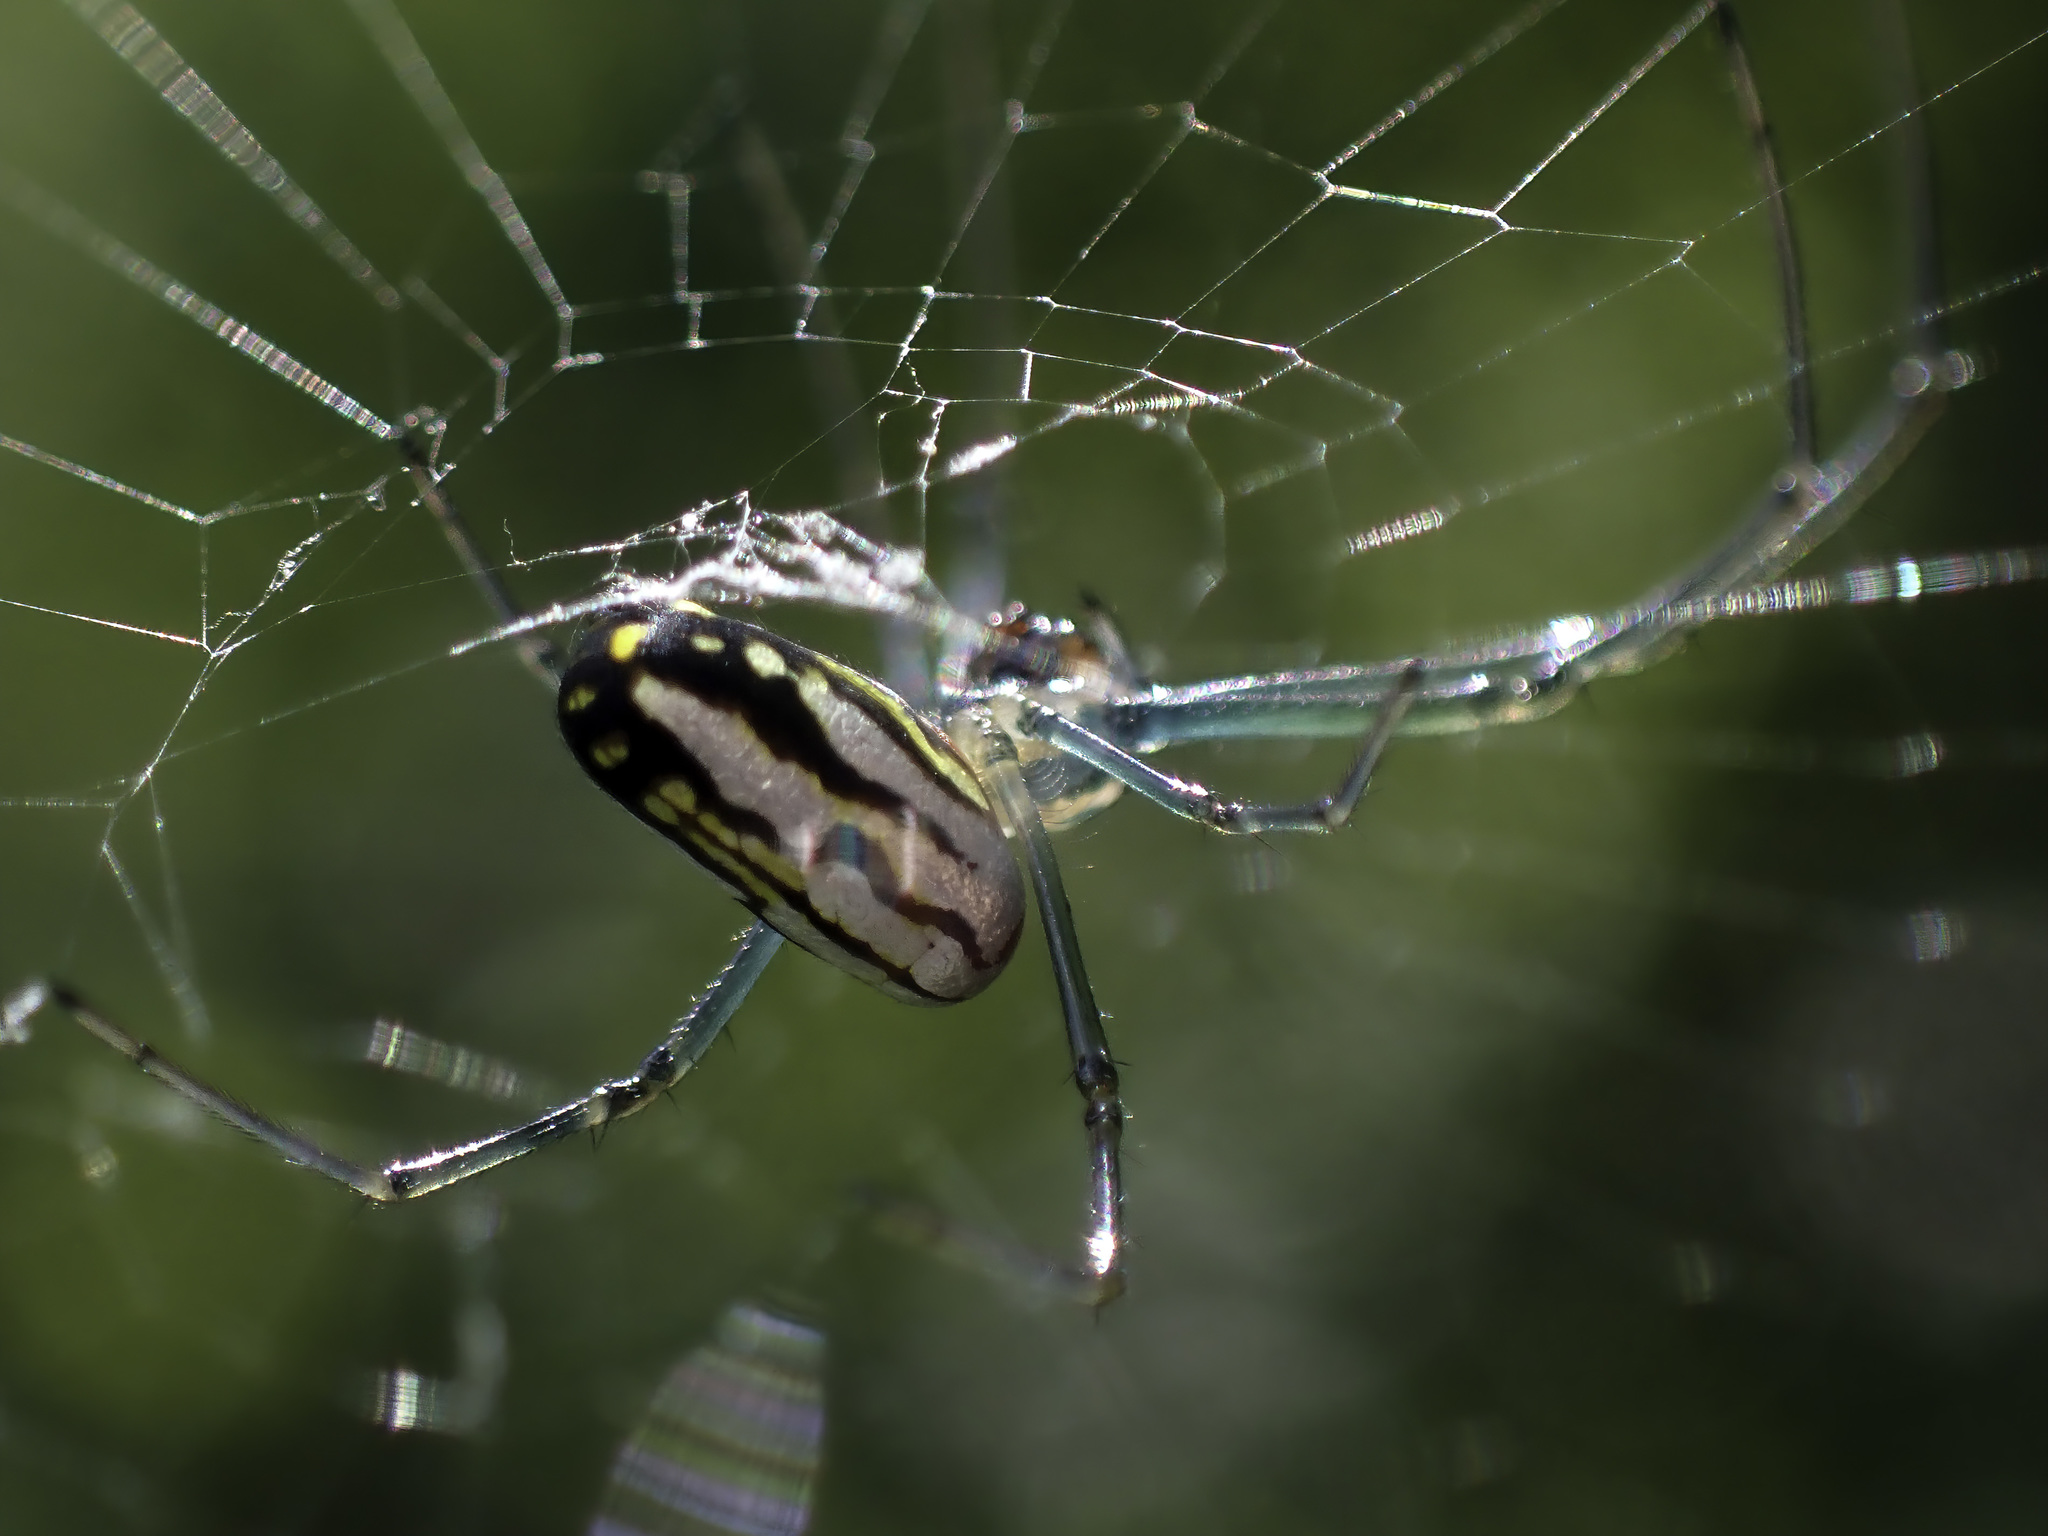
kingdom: Animalia
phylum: Arthropoda
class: Arachnida
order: Araneae
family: Tetragnathidae
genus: Leucauge
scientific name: Leucauge argyra
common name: Longjawed orb weavers
